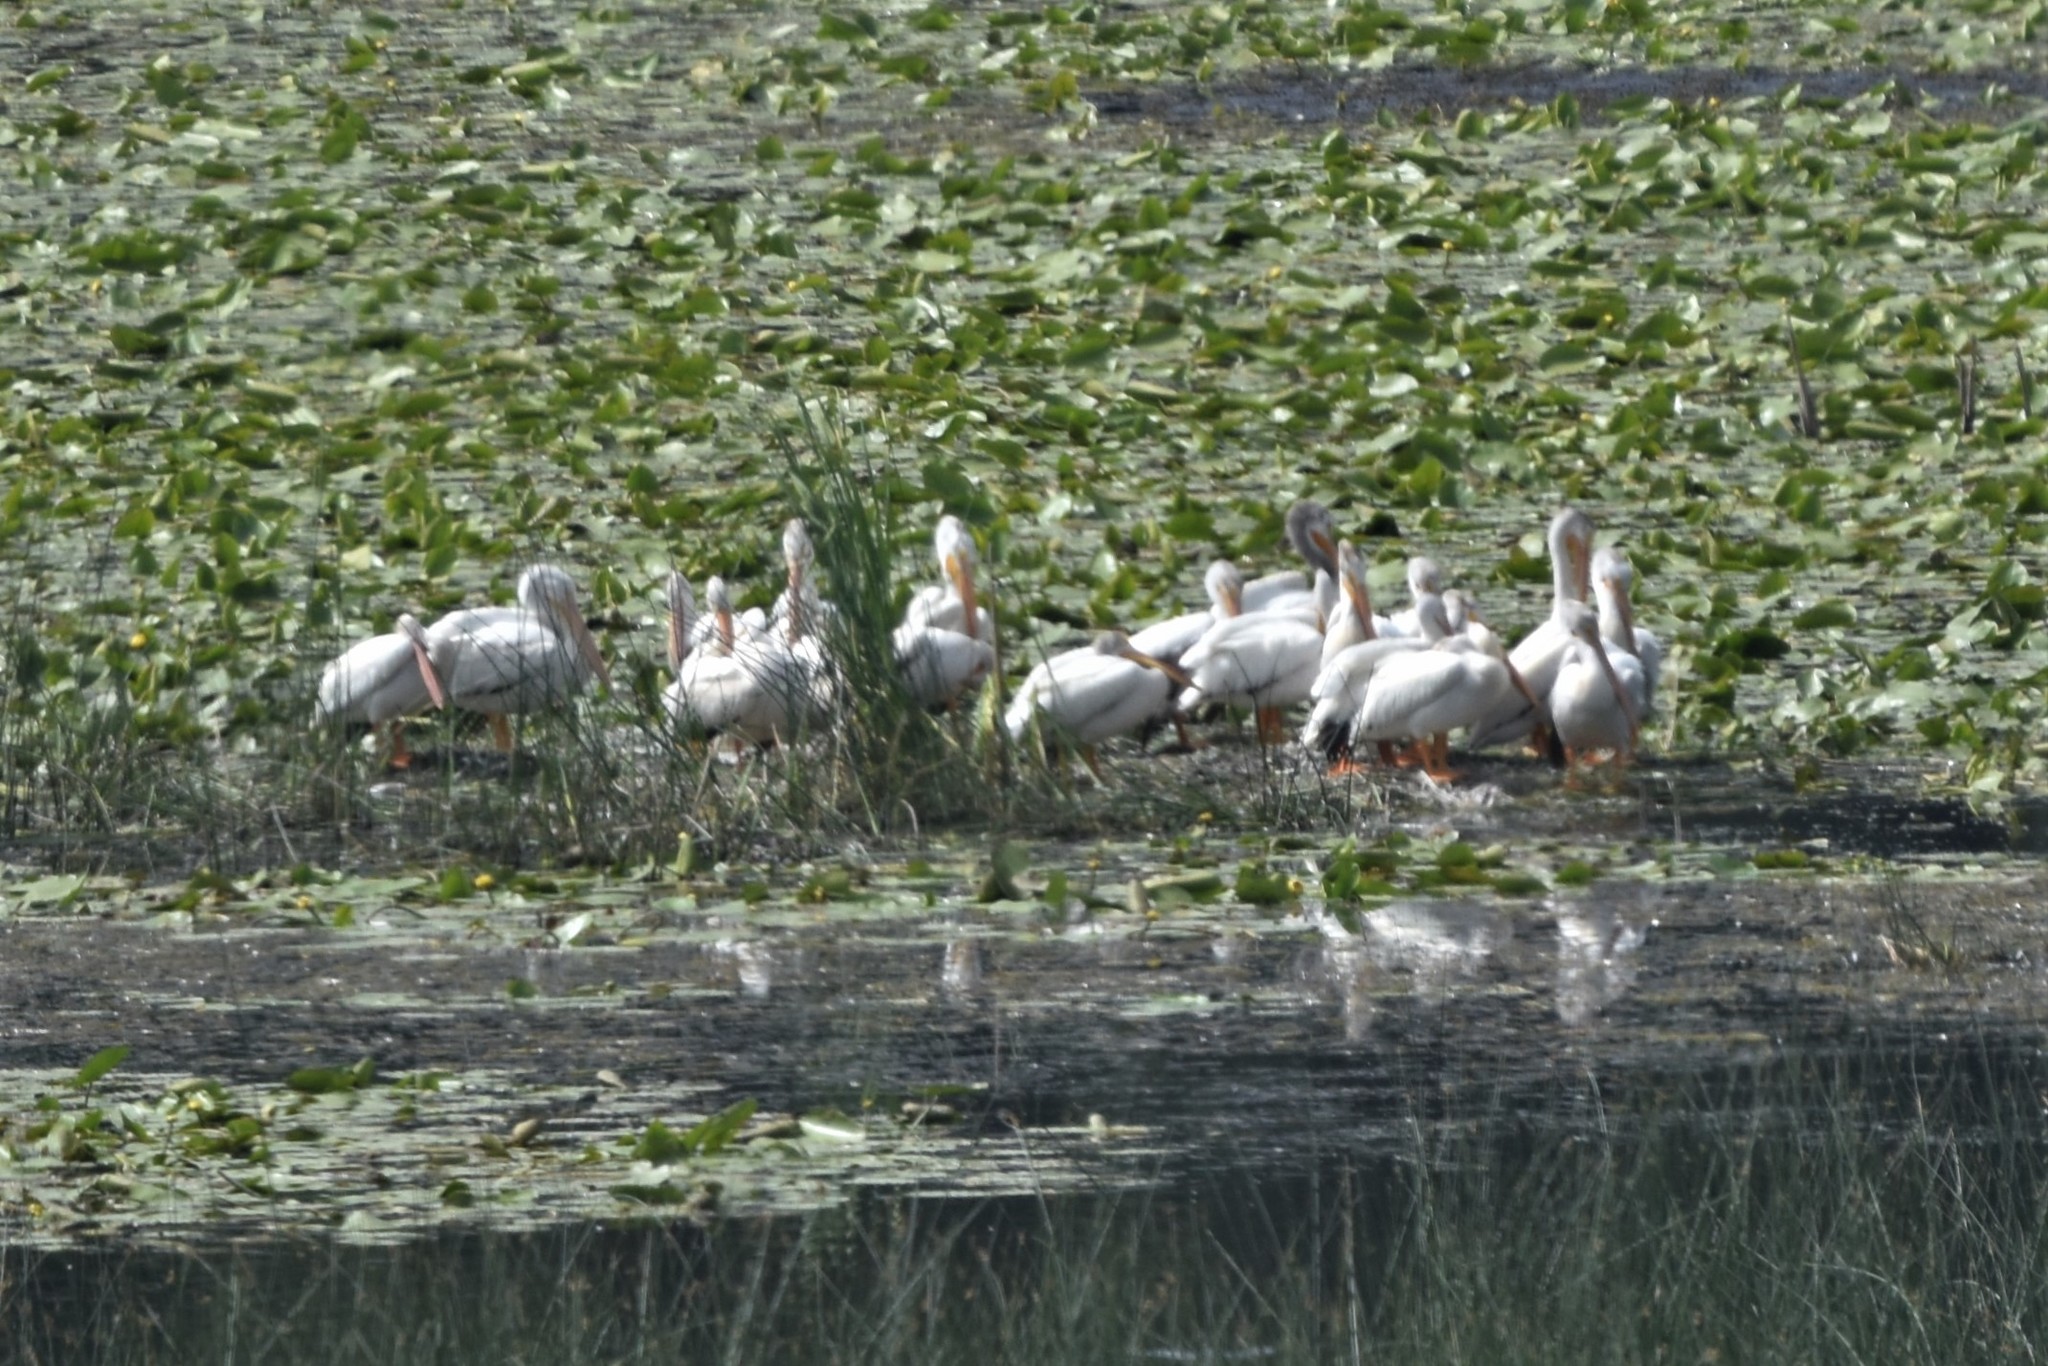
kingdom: Animalia
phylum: Chordata
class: Aves
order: Pelecaniformes
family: Pelecanidae
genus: Pelecanus
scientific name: Pelecanus erythrorhynchos
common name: American white pelican
